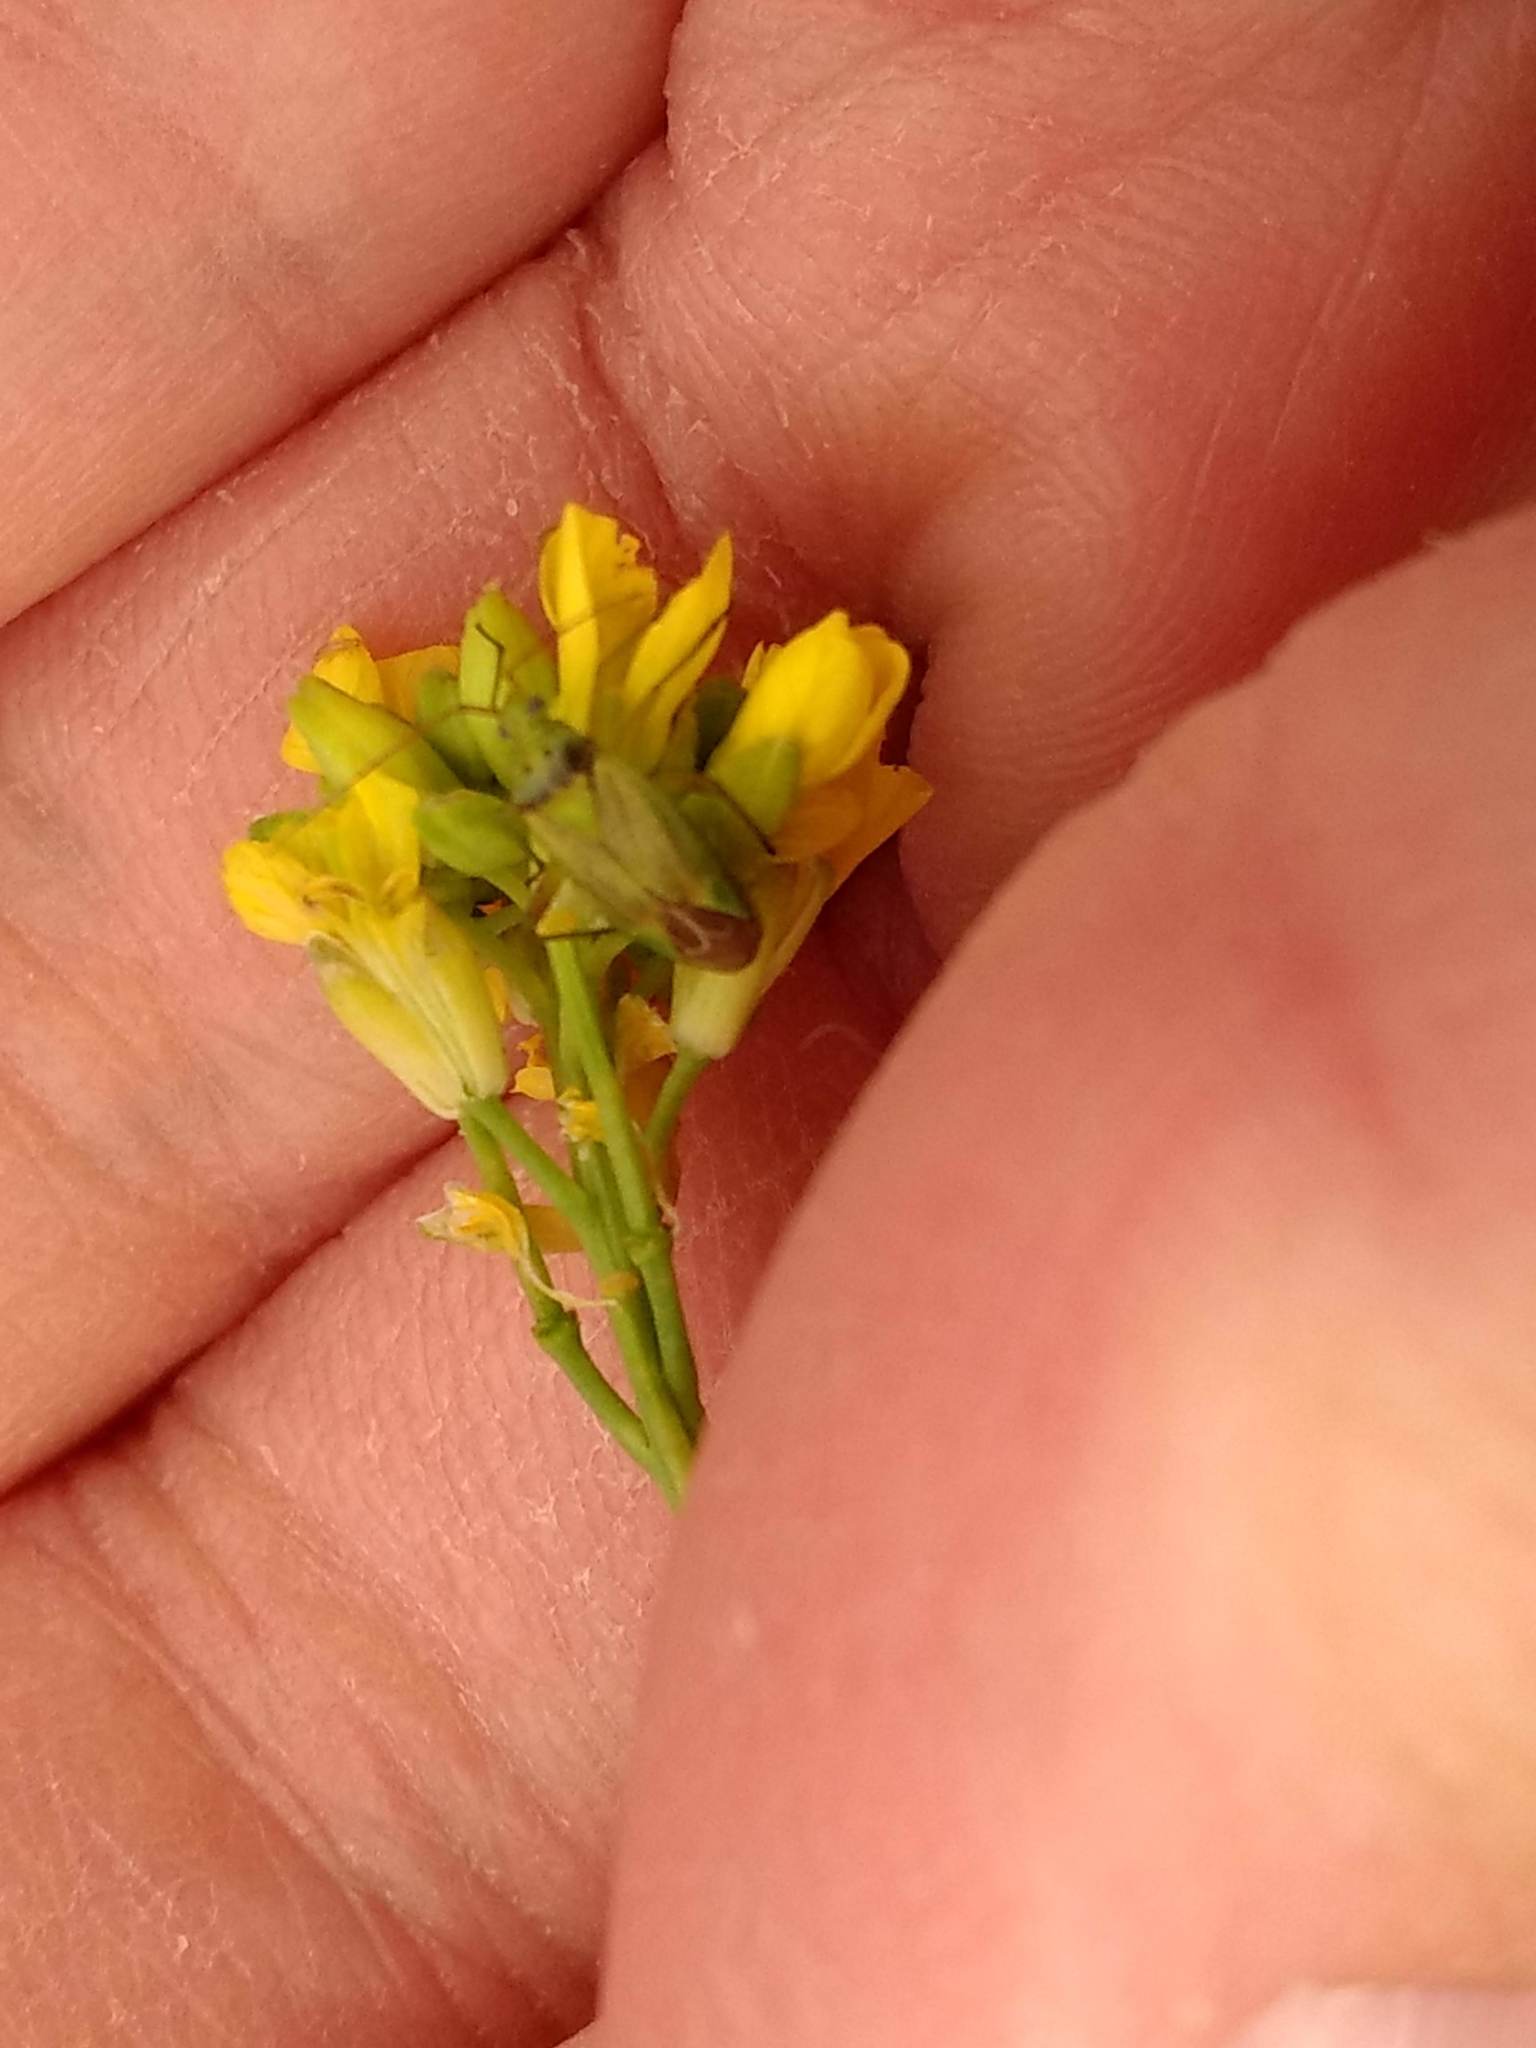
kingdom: Animalia
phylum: Arthropoda
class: Insecta
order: Hemiptera
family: Miridae
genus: Closterotomus
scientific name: Closterotomus norvegicus
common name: Plant bug
